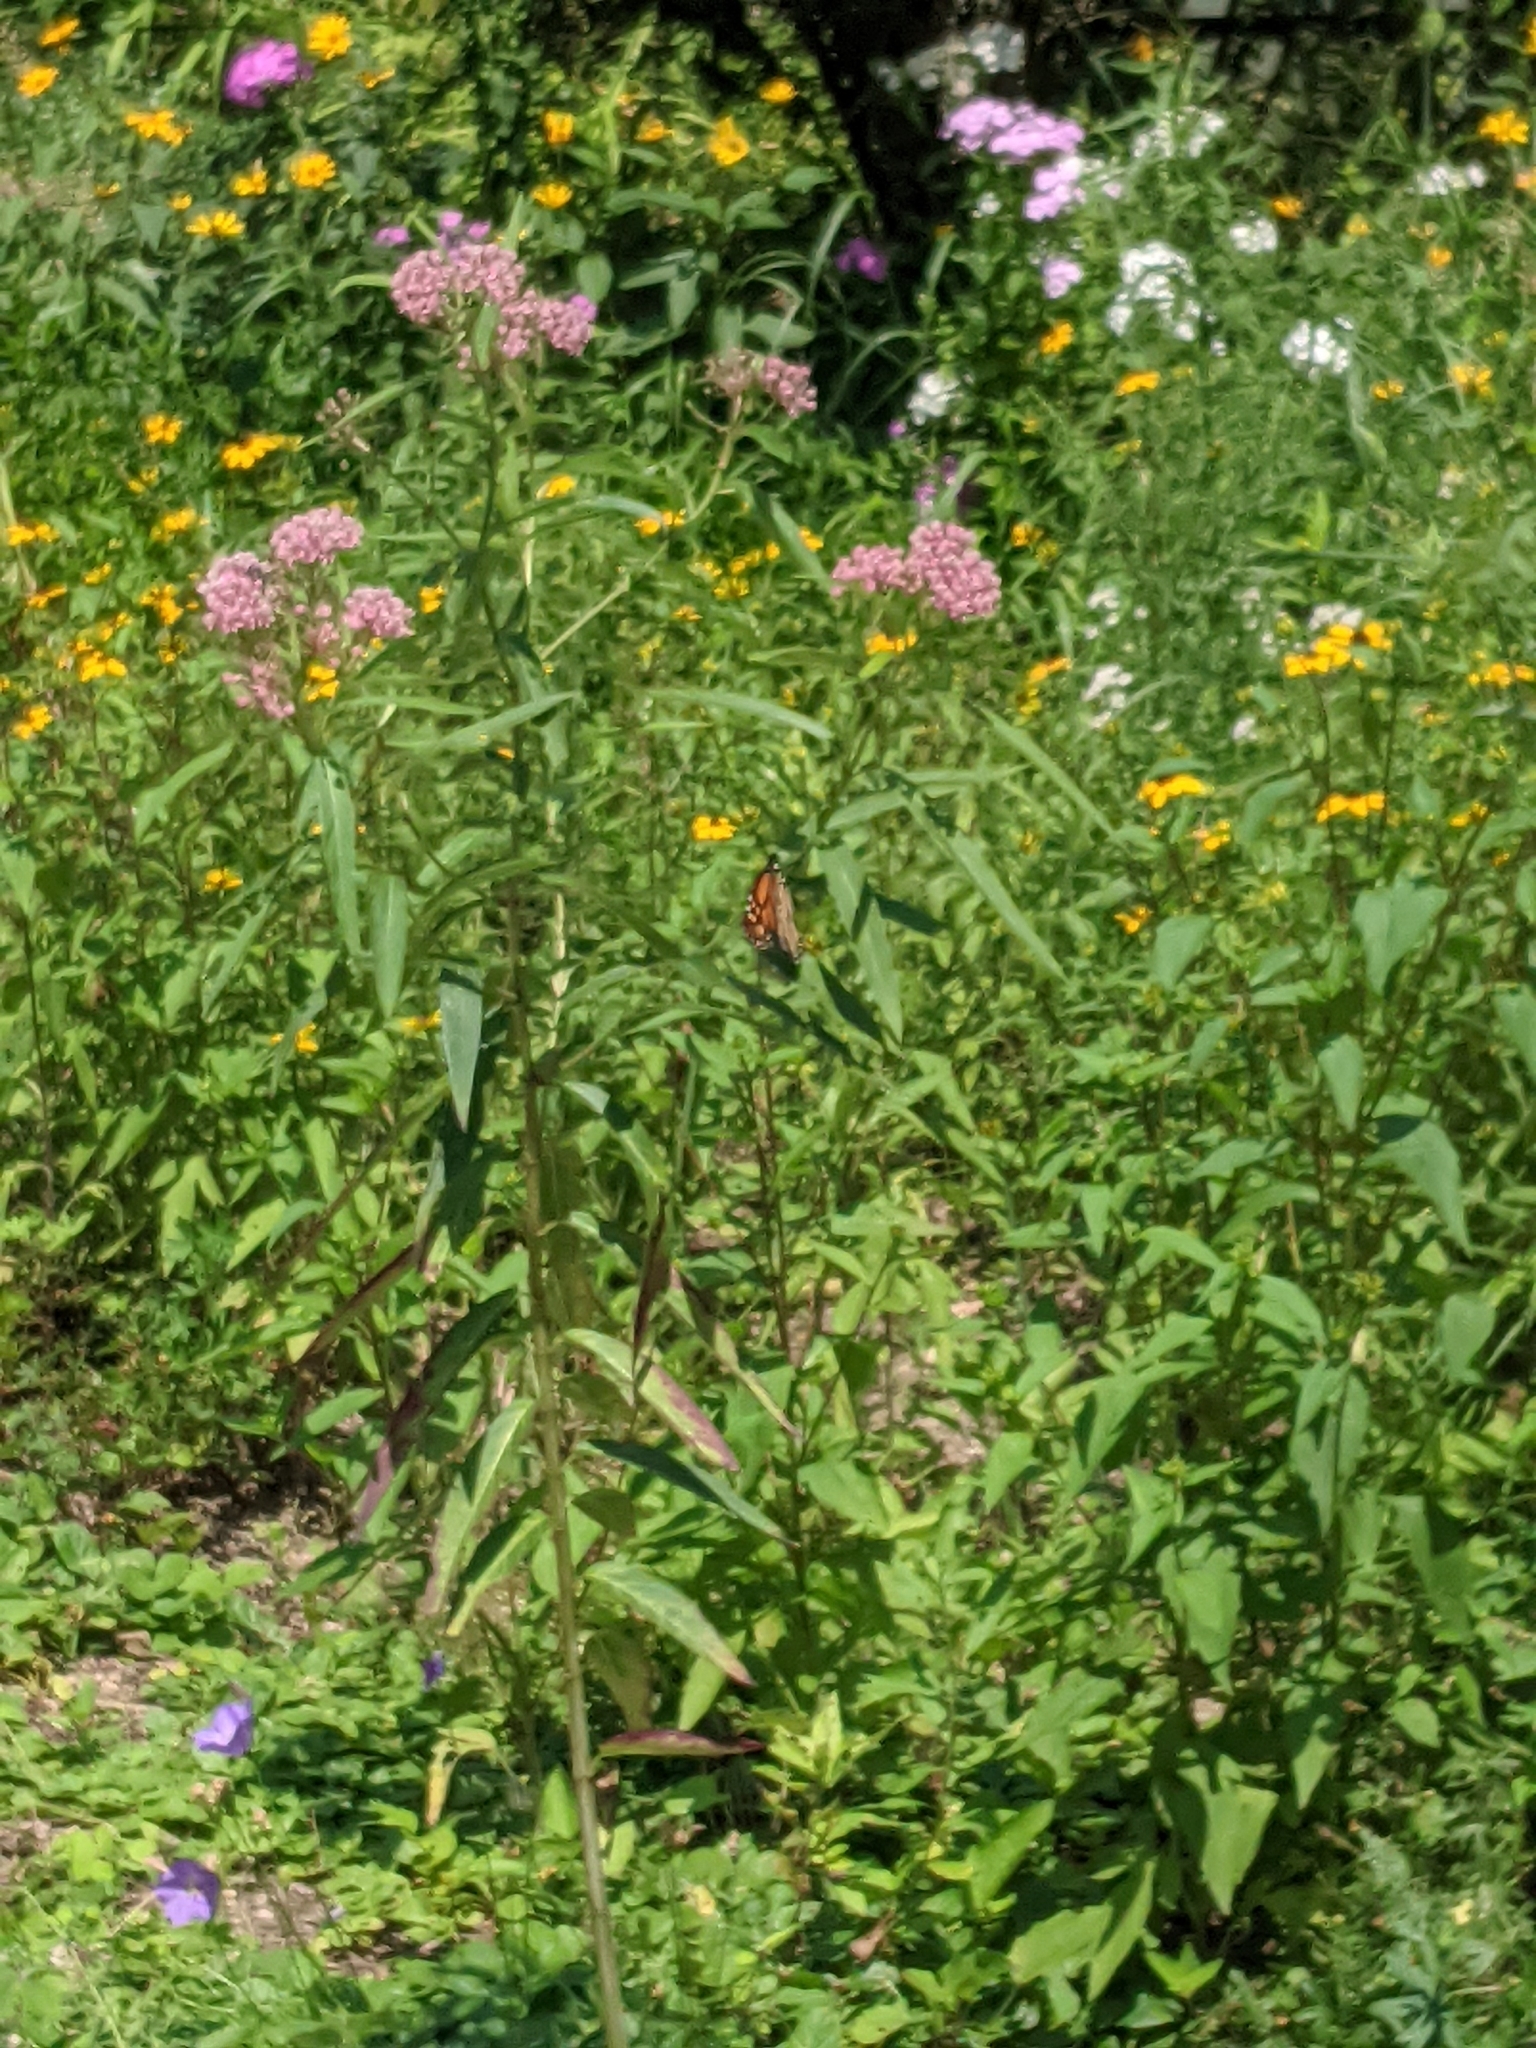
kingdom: Animalia
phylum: Arthropoda
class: Insecta
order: Lepidoptera
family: Nymphalidae
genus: Danaus
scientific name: Danaus plexippus
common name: Monarch
